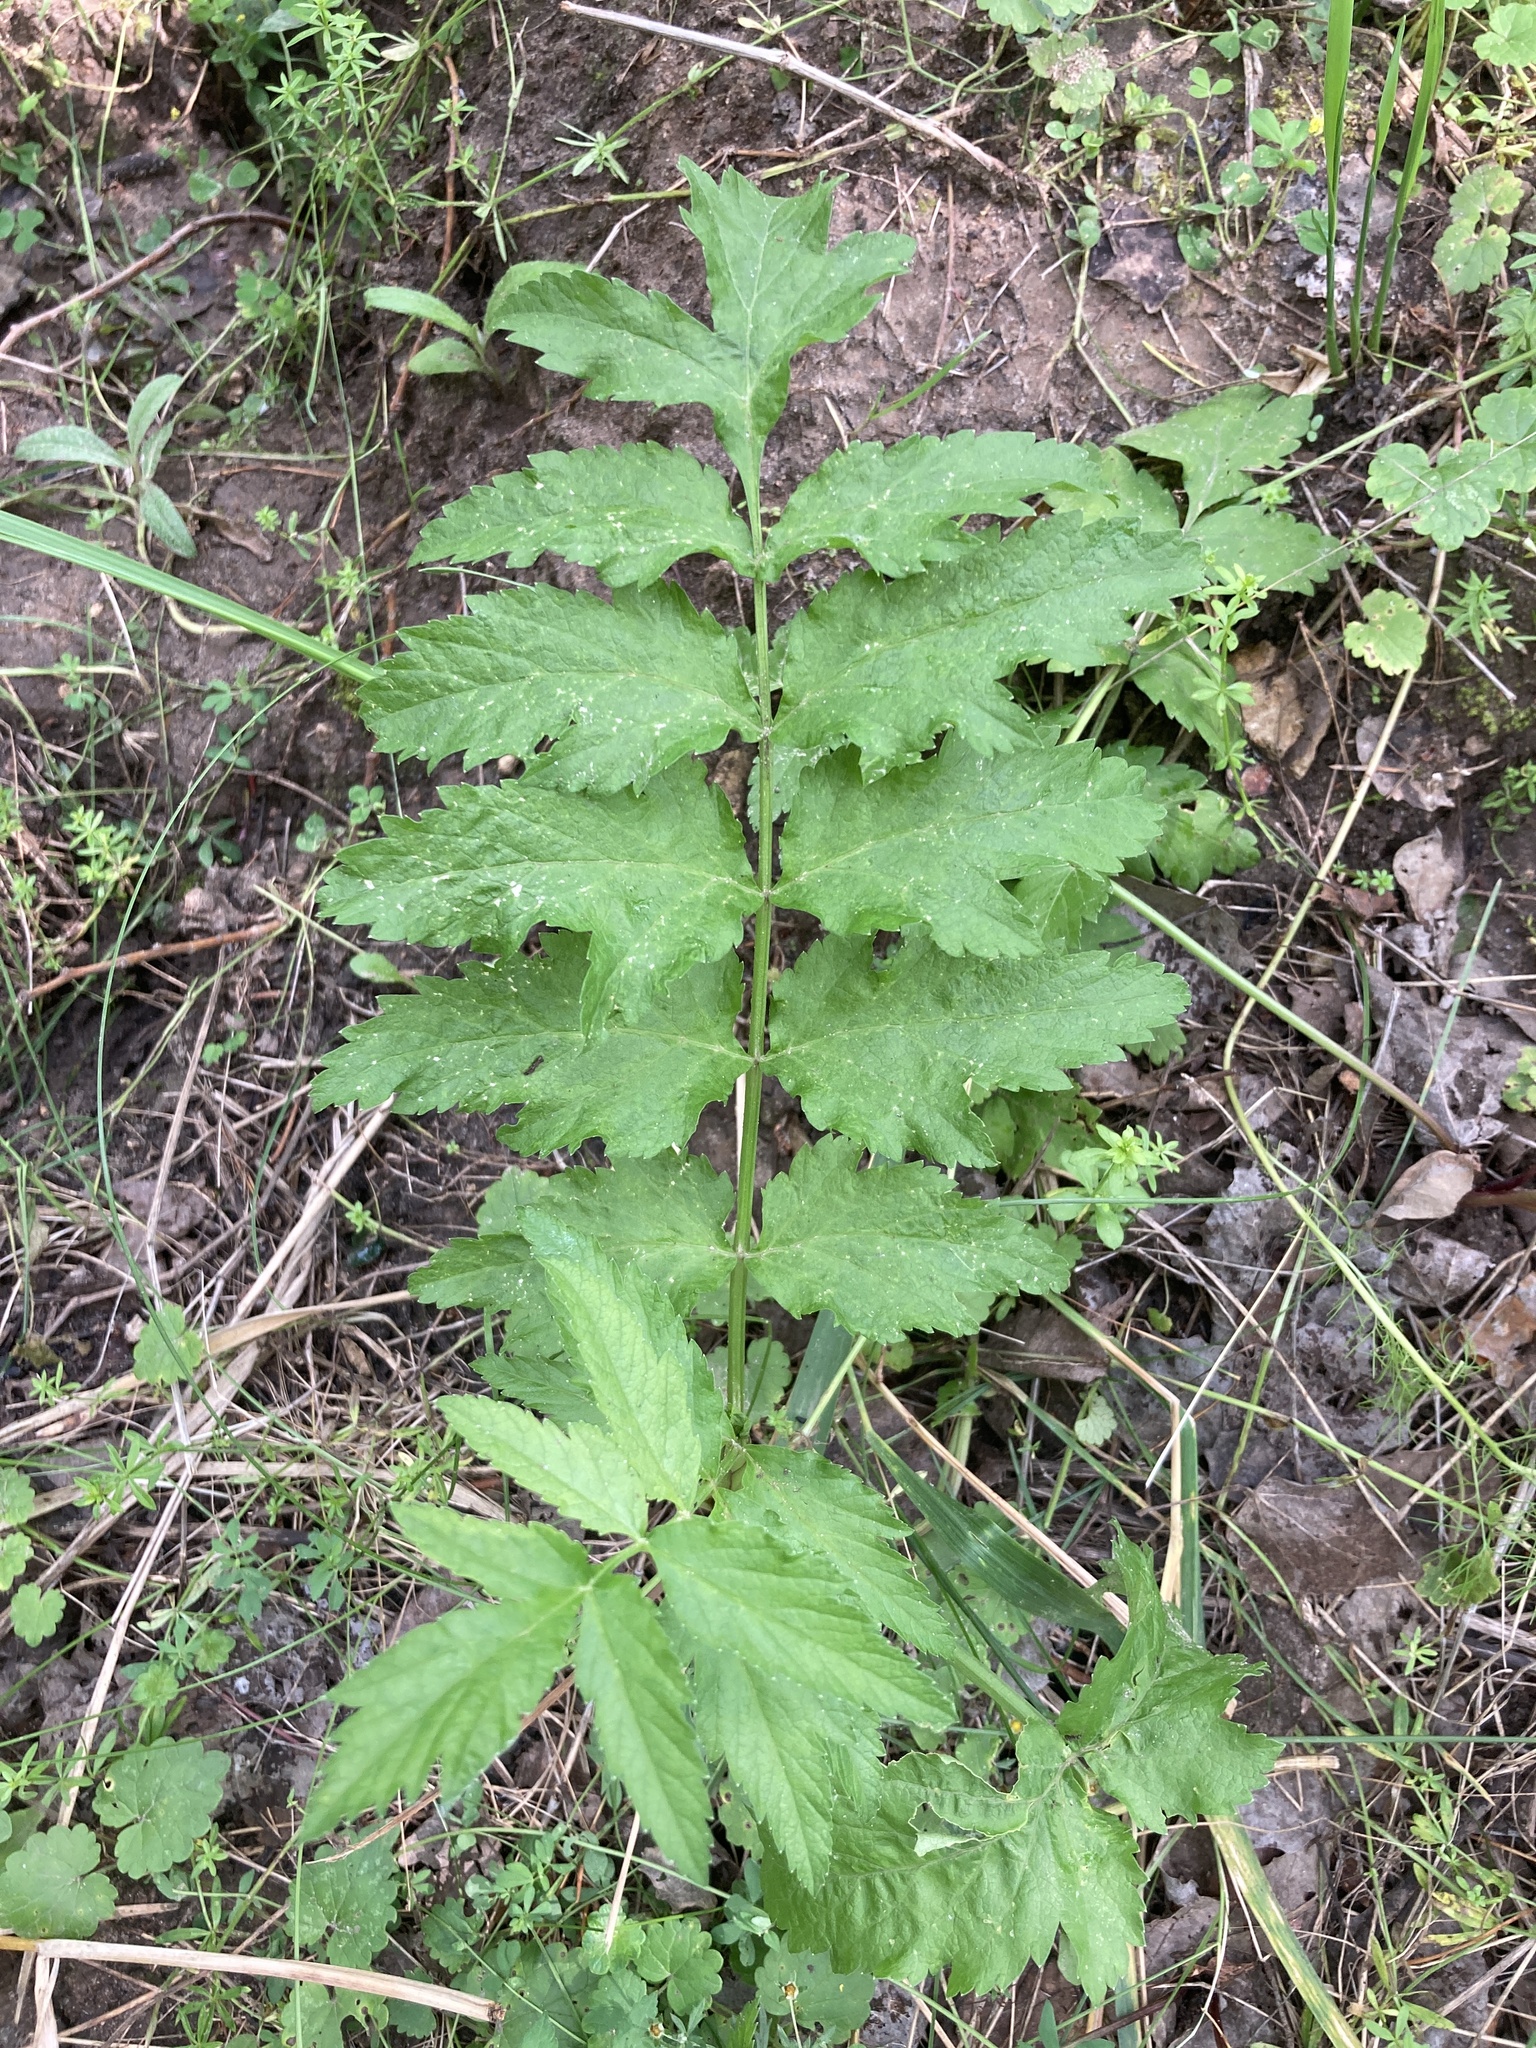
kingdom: Plantae
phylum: Tracheophyta
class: Magnoliopsida
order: Apiales
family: Apiaceae
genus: Pastinaca
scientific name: Pastinaca sativa
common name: Wild parsnip
